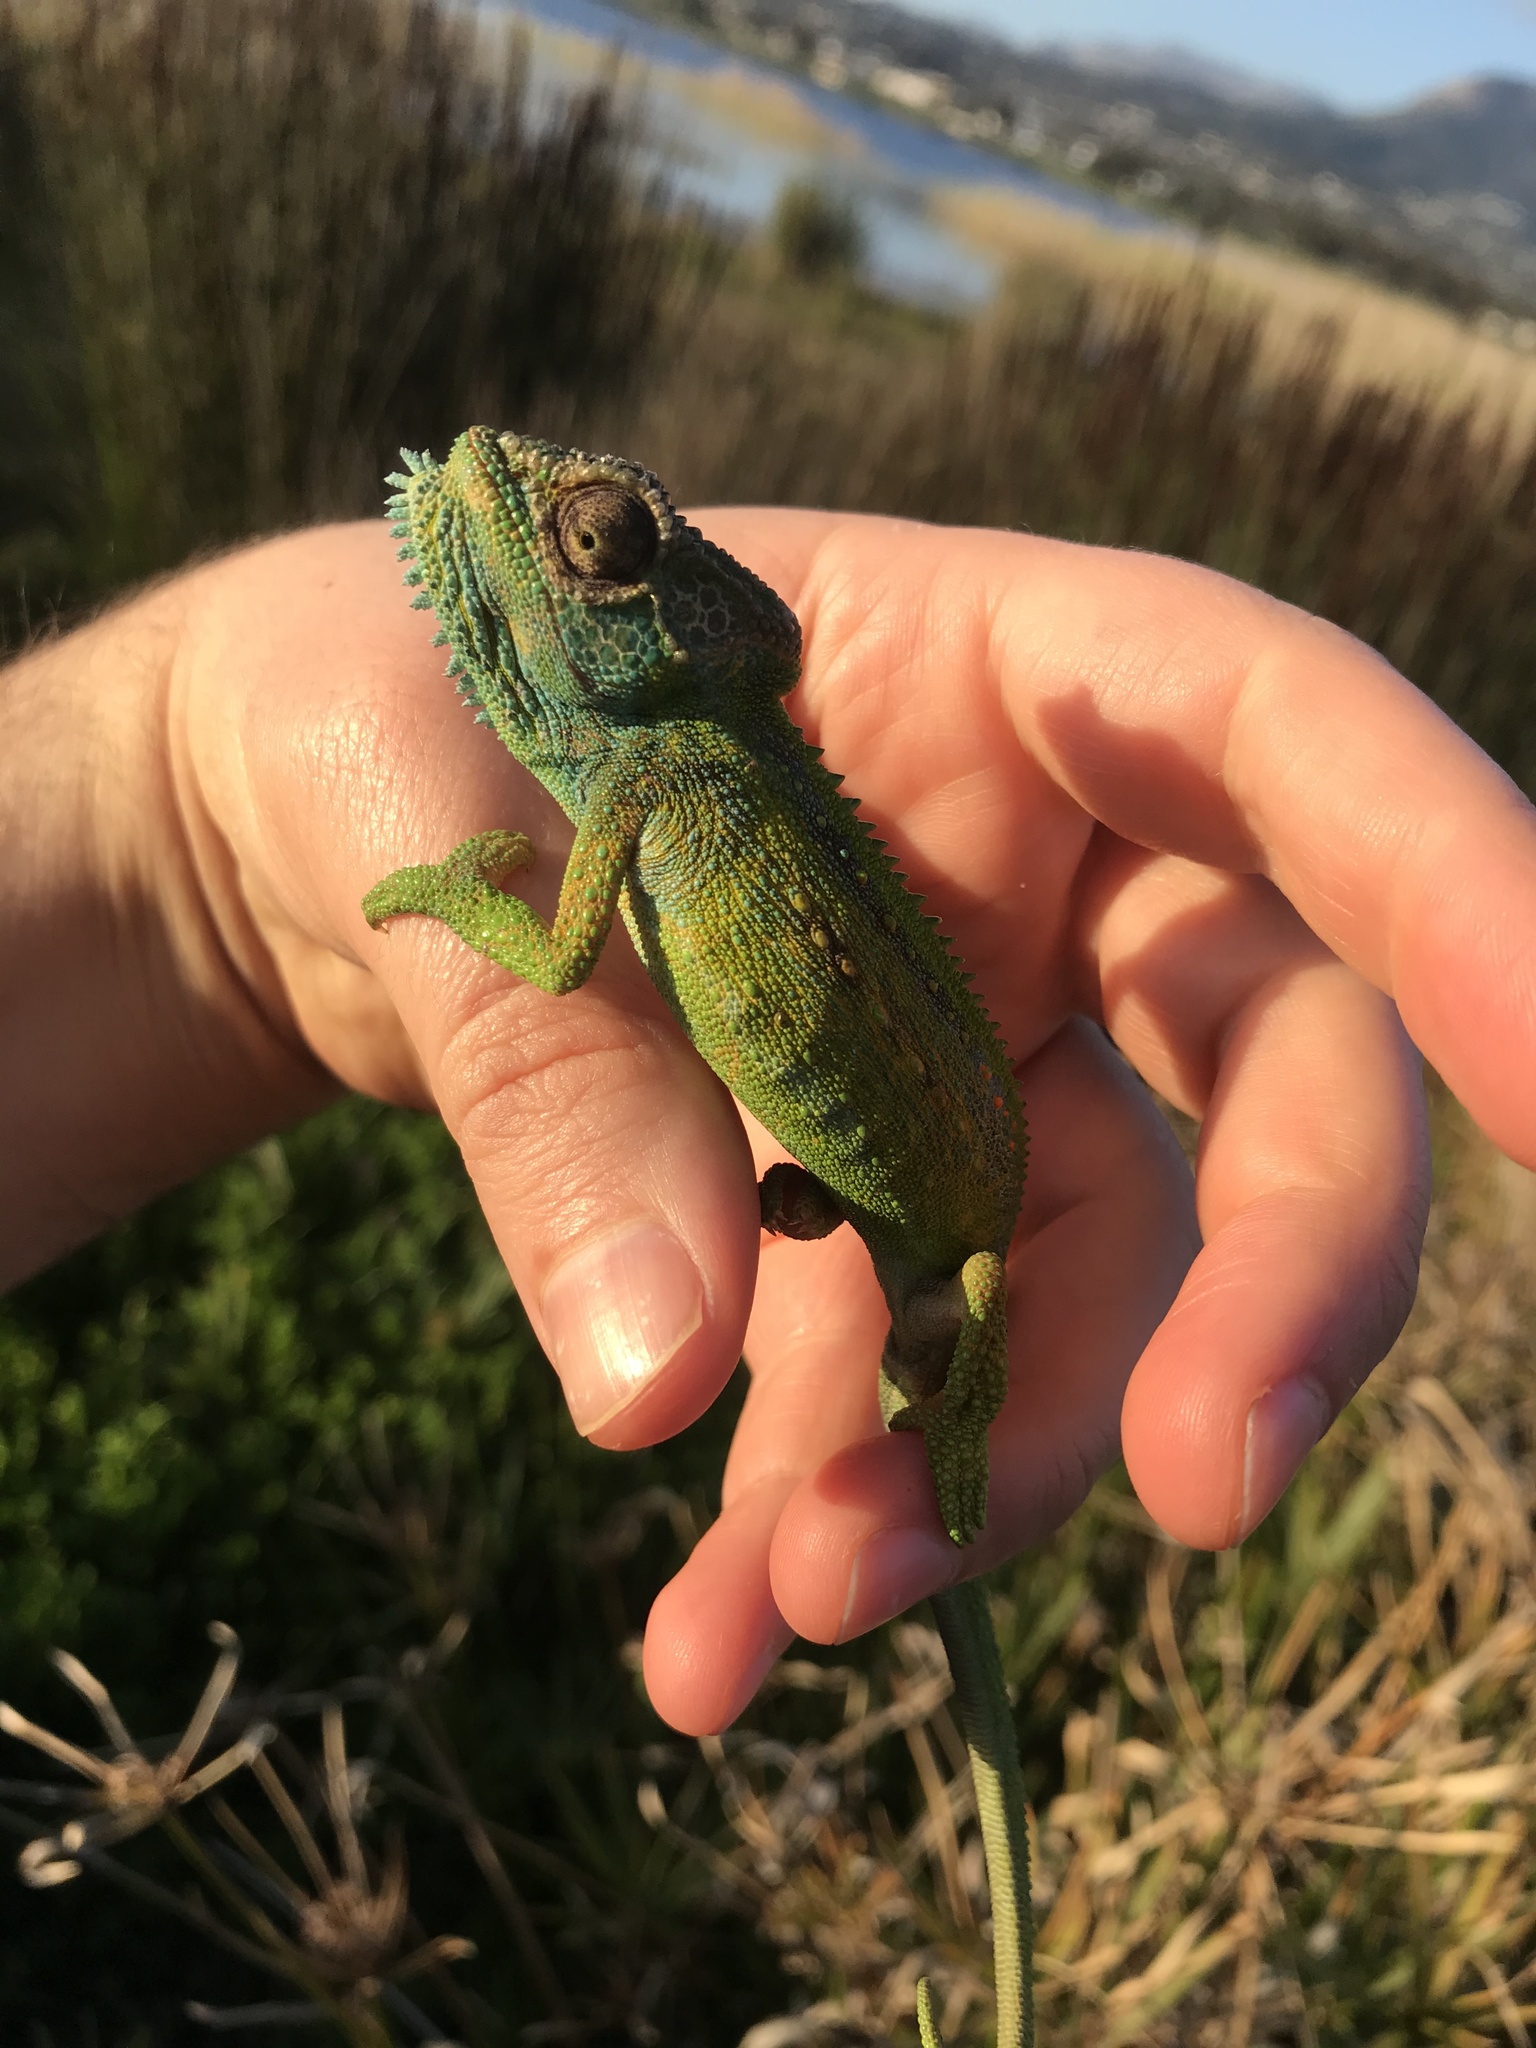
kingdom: Animalia
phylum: Chordata
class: Squamata
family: Chamaeleonidae
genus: Bradypodion
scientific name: Bradypodion pumilum
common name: Cape dwarf chameleon
